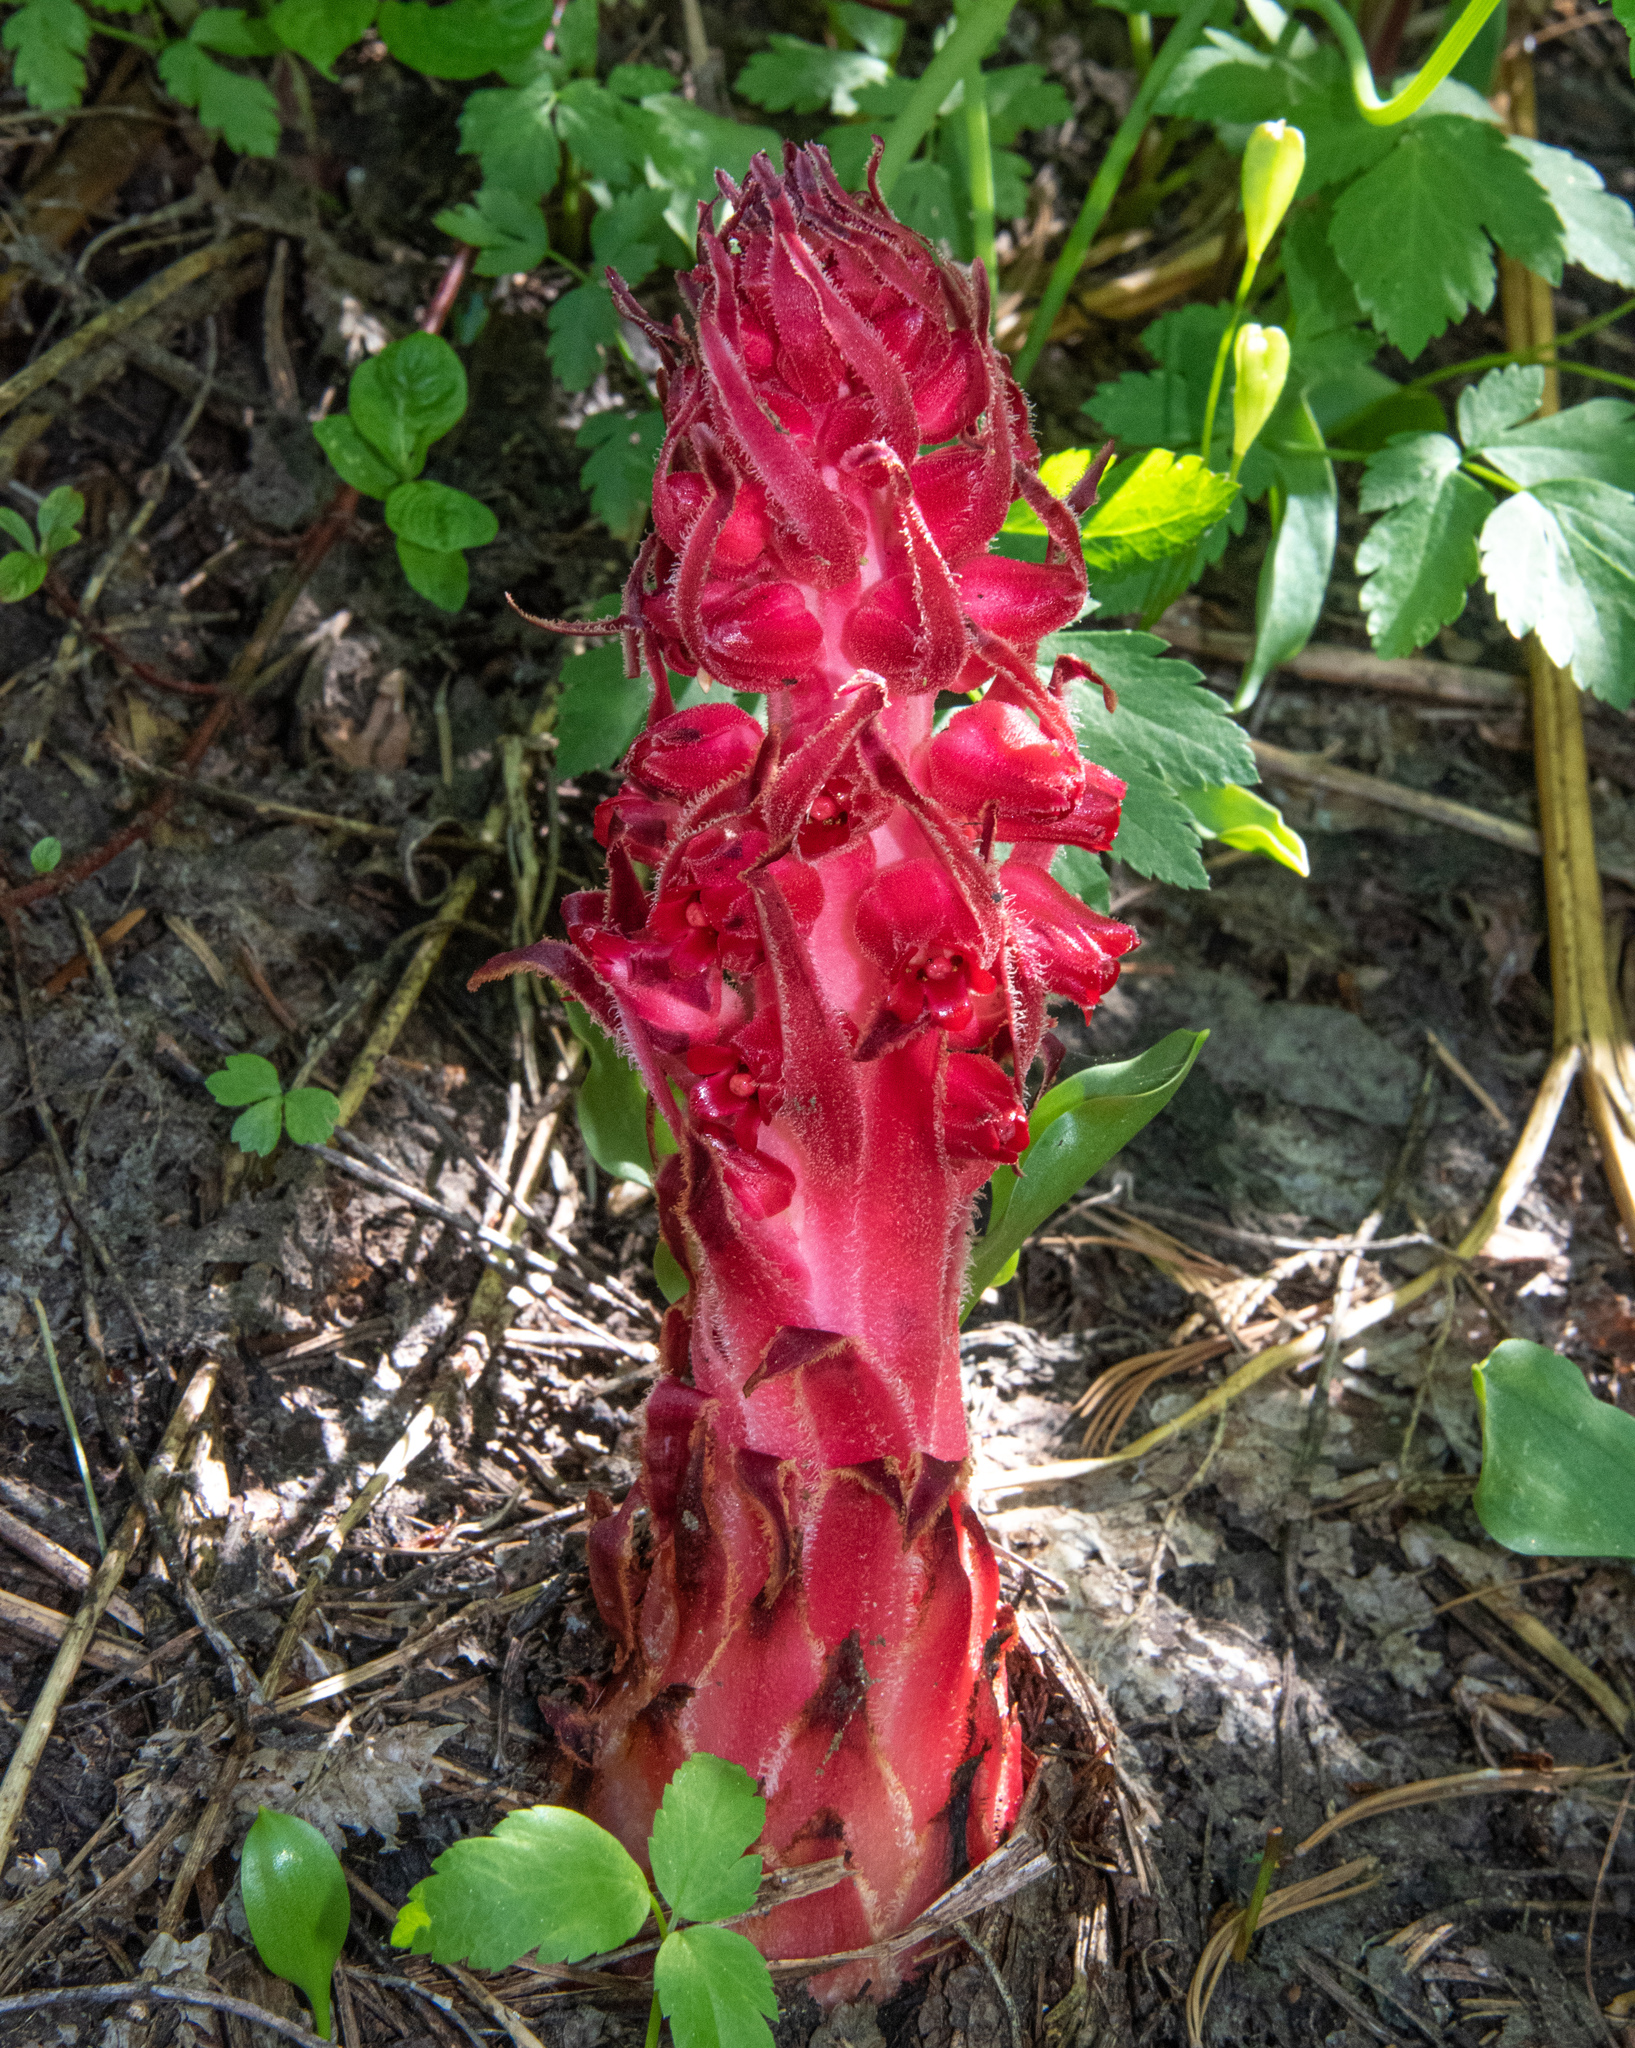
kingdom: Plantae
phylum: Tracheophyta
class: Magnoliopsida
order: Ericales
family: Ericaceae
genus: Sarcodes
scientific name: Sarcodes sanguinea
